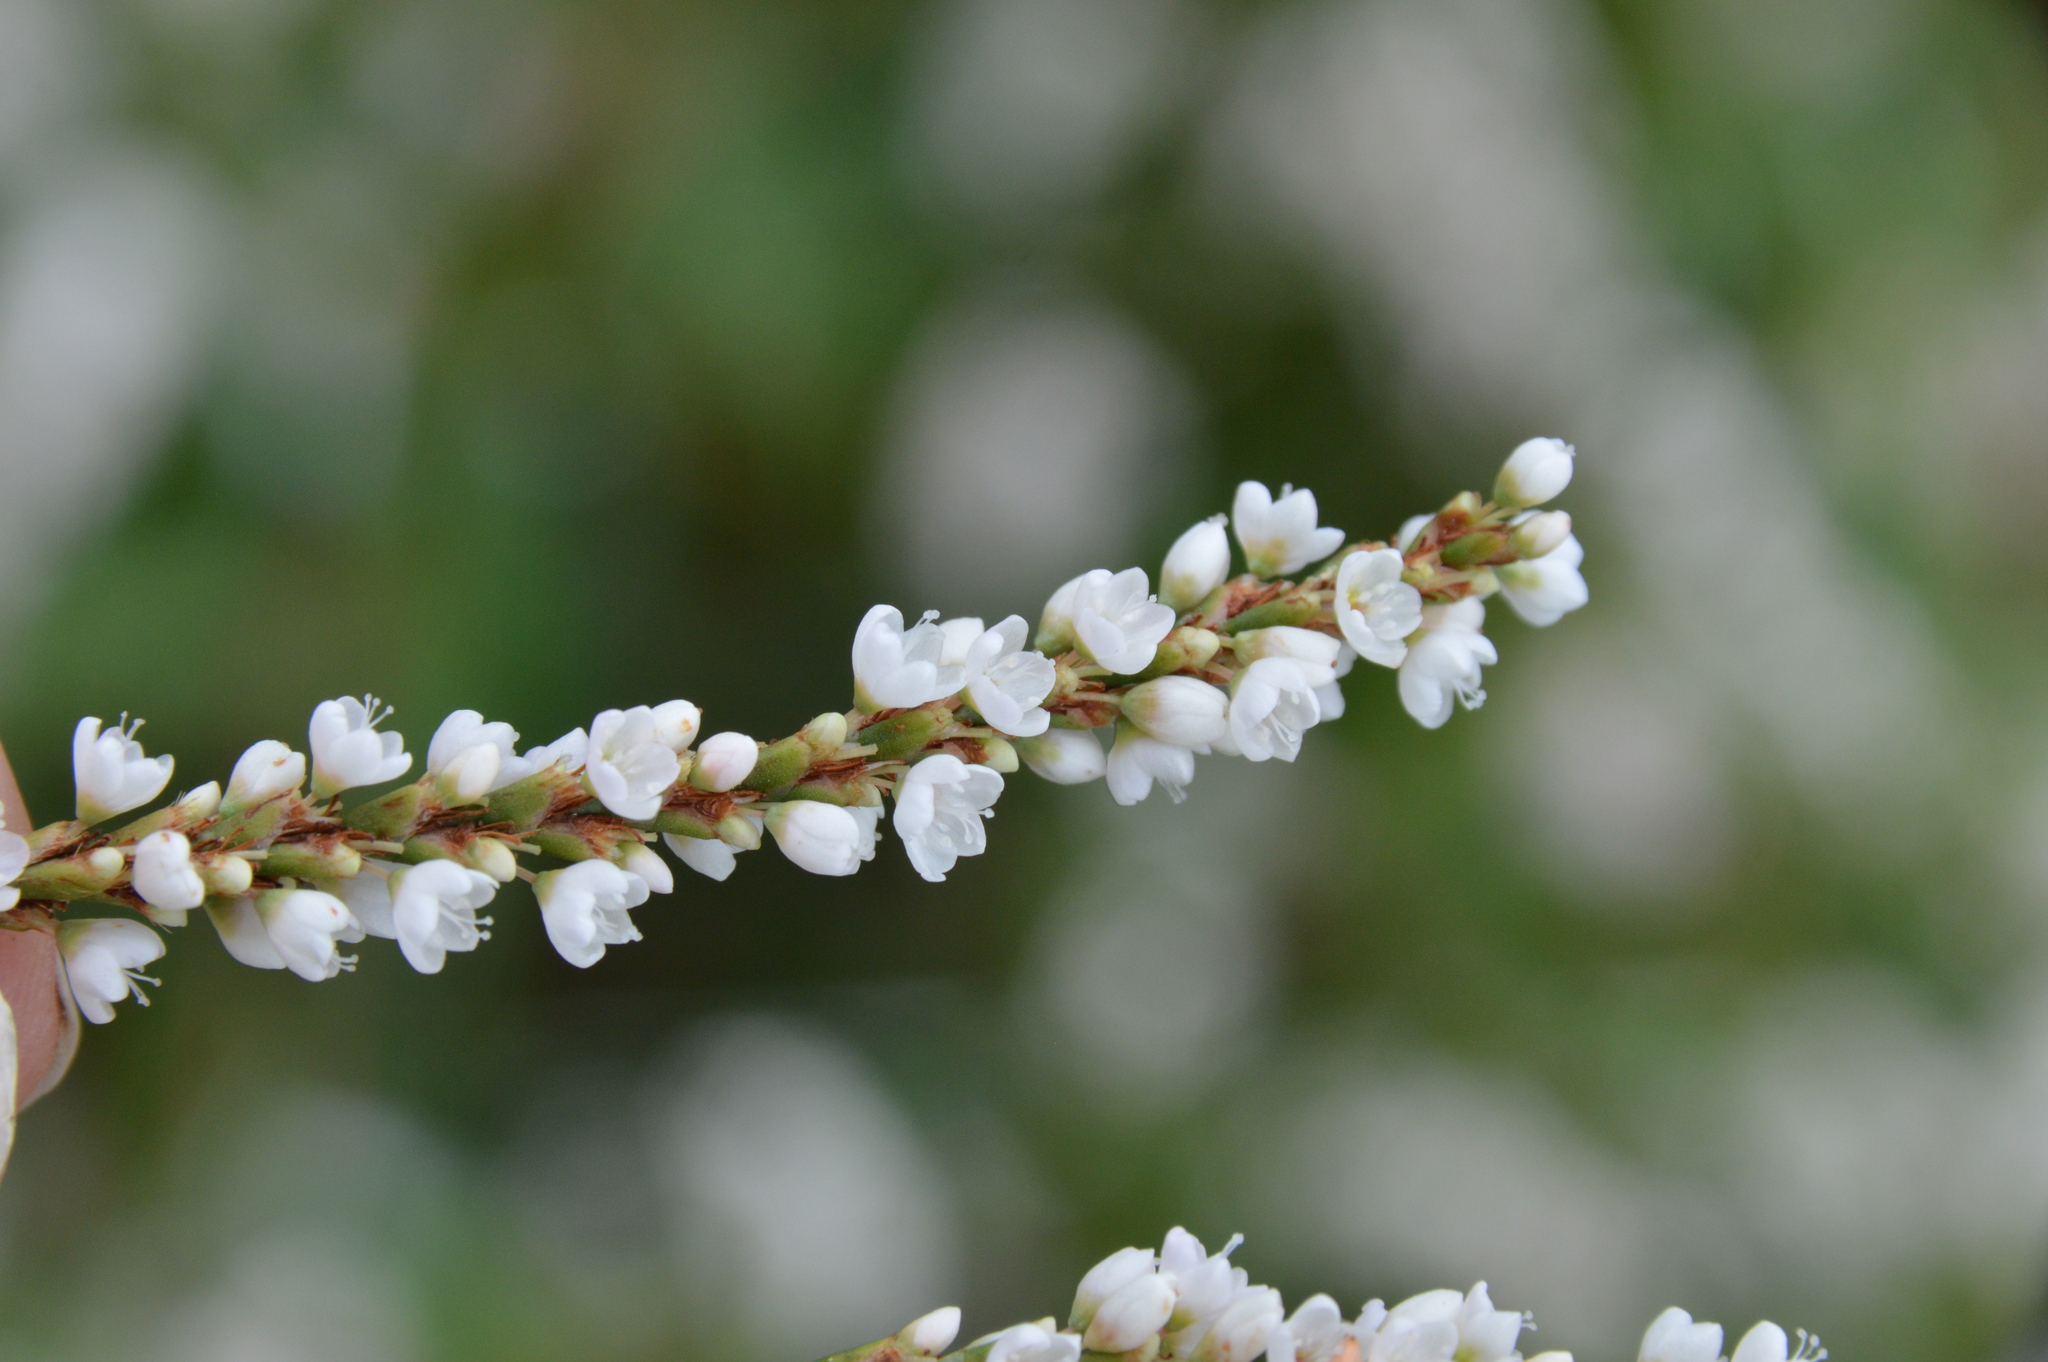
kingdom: Plantae
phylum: Tracheophyta
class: Magnoliopsida
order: Caryophyllales
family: Polygonaceae
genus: Persicaria
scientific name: Persicaria hydropiperoides
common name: Swamp smartweed
